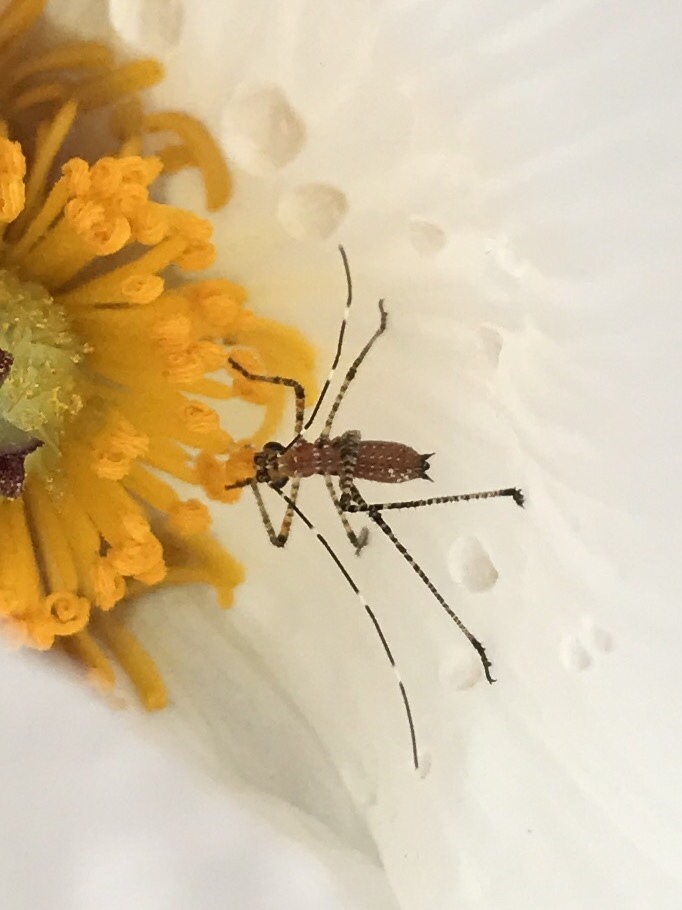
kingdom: Animalia
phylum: Arthropoda
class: Insecta
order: Orthoptera
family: Tettigoniidae
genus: Scudderia
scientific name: Scudderia mexicana
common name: Mexican bush katydid
